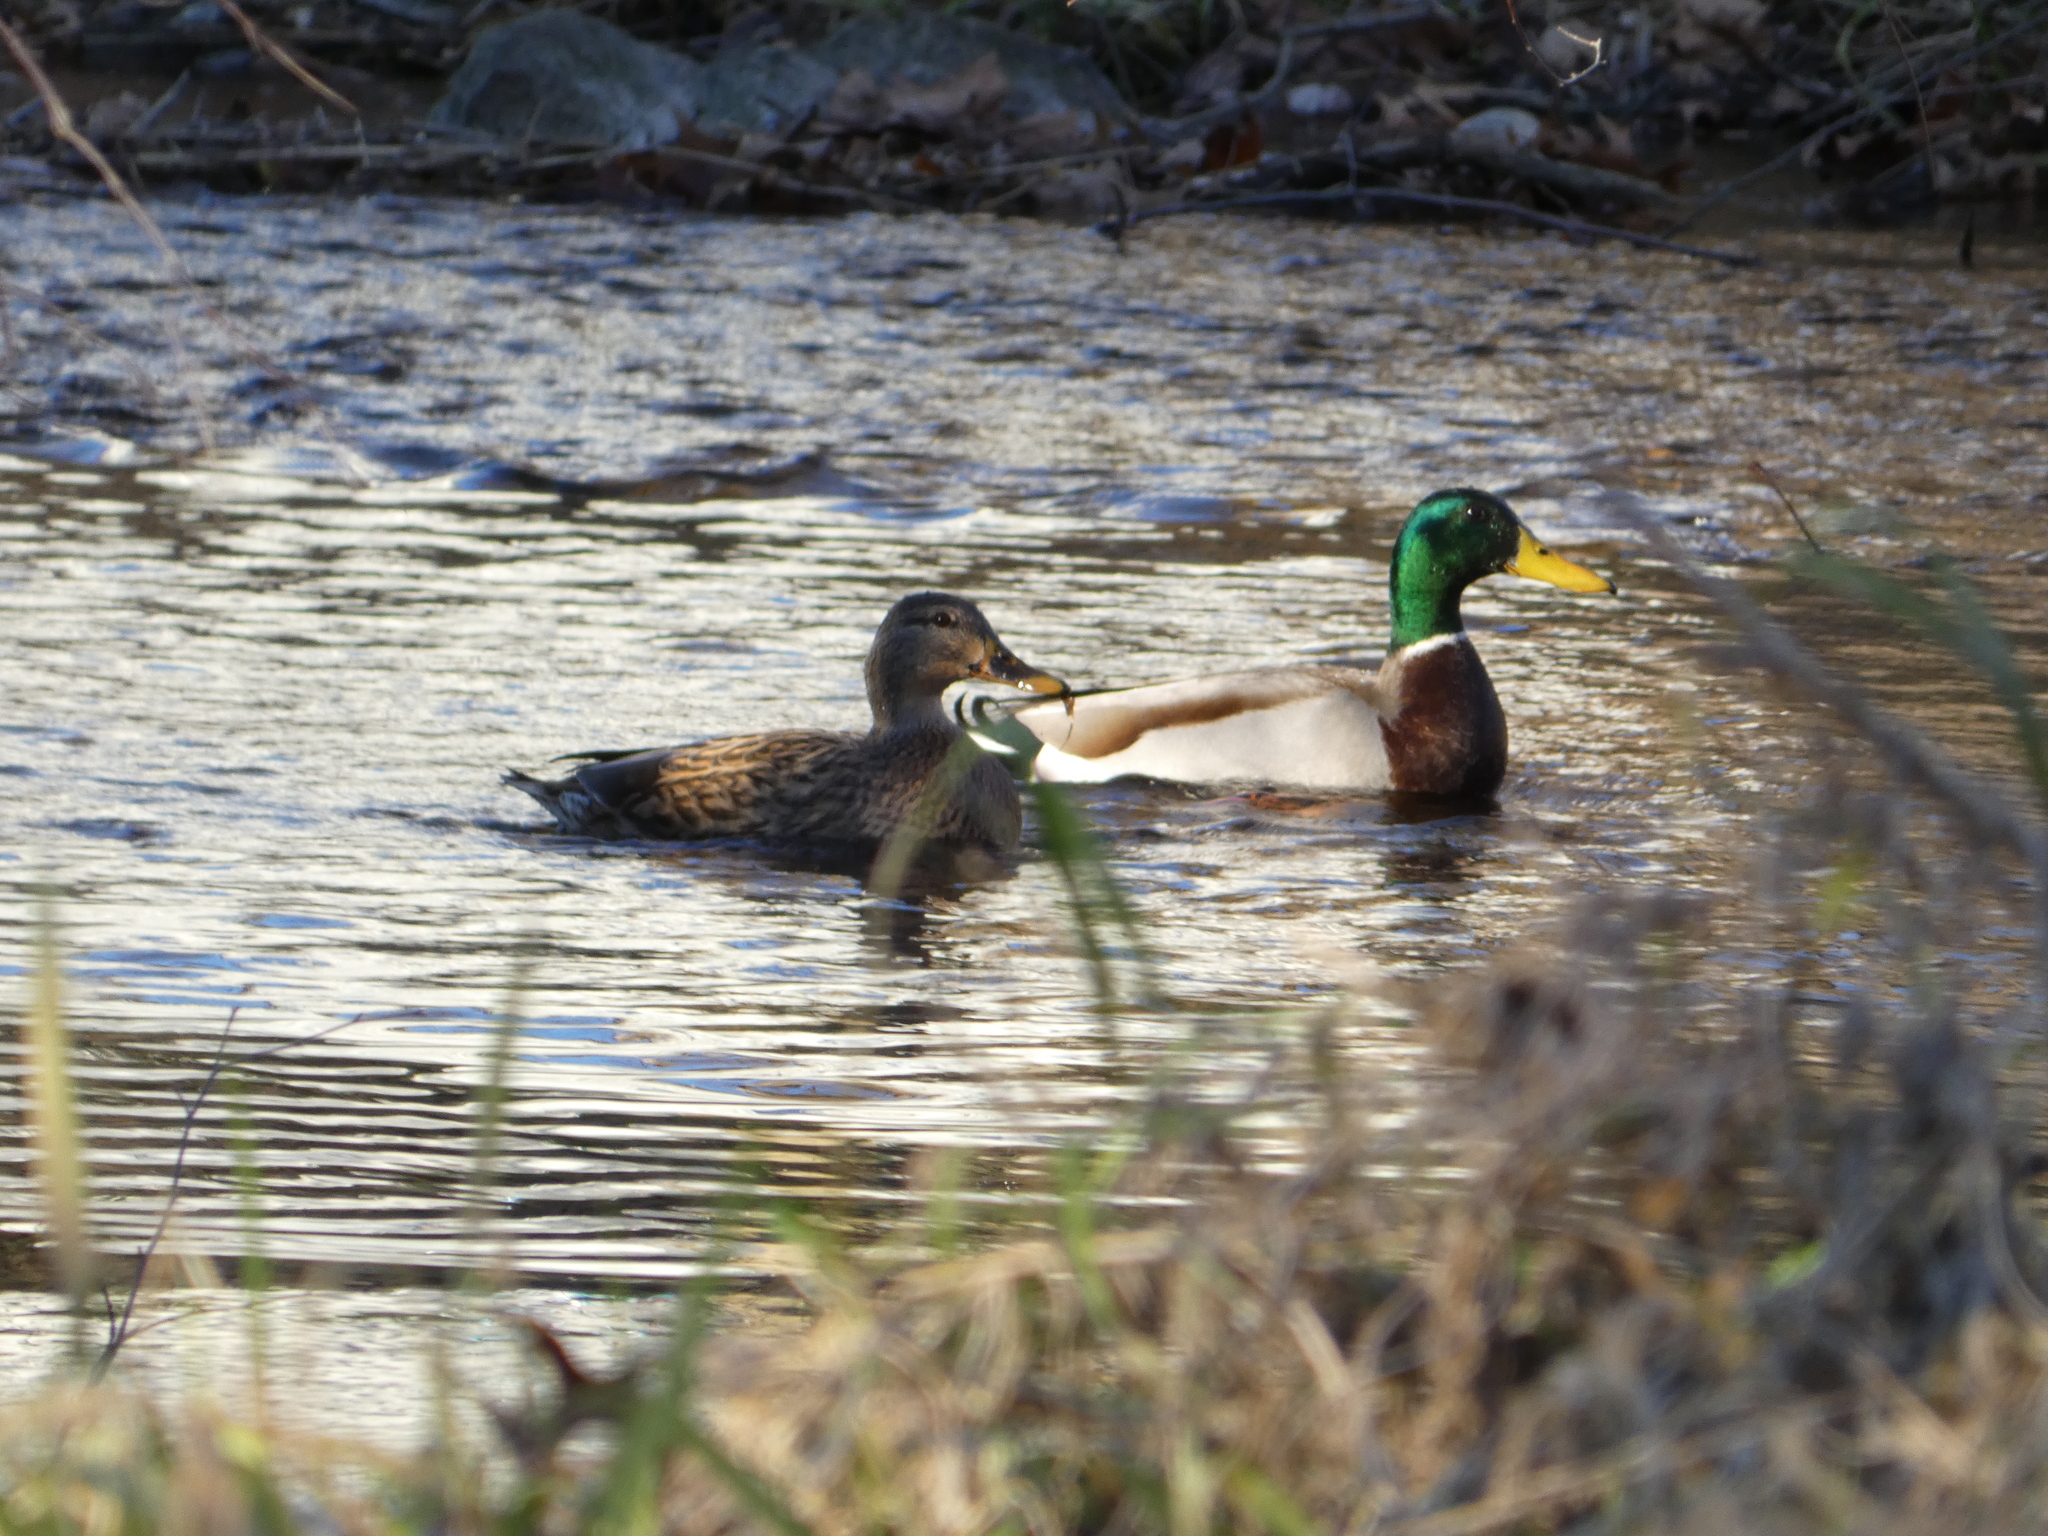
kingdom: Animalia
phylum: Chordata
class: Aves
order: Anseriformes
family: Anatidae
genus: Anas
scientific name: Anas platyrhynchos
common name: Mallard
